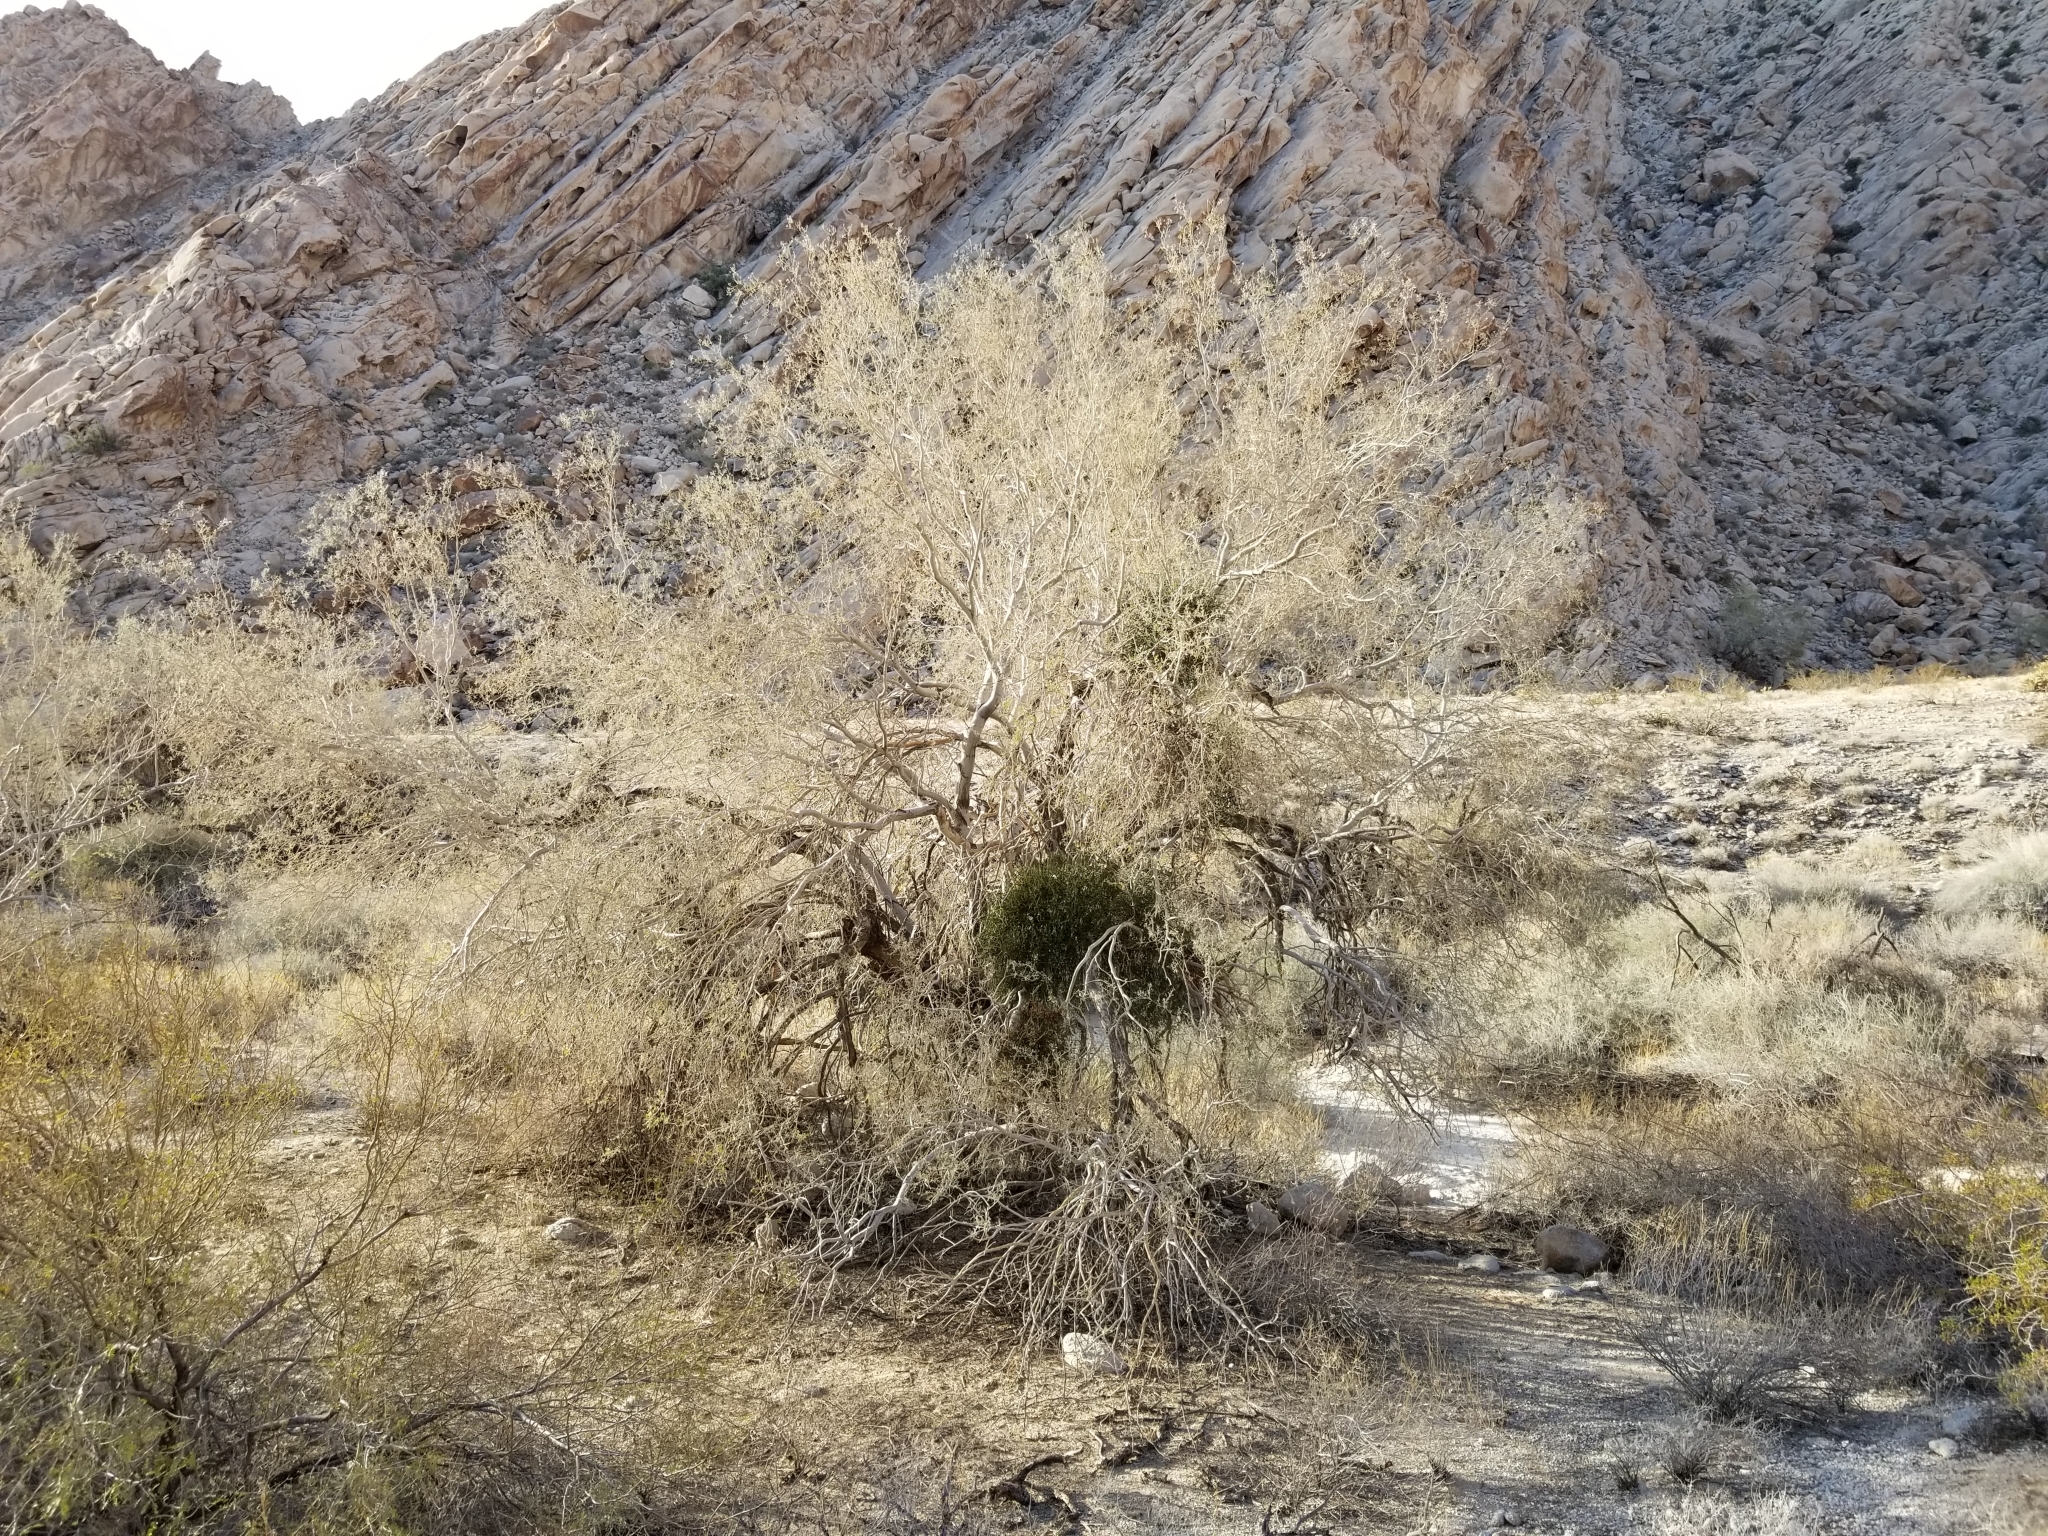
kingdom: Plantae
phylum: Tracheophyta
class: Magnoliopsida
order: Santalales
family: Viscaceae
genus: Phoradendron
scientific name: Phoradendron californicum
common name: Acacia mistletoe
